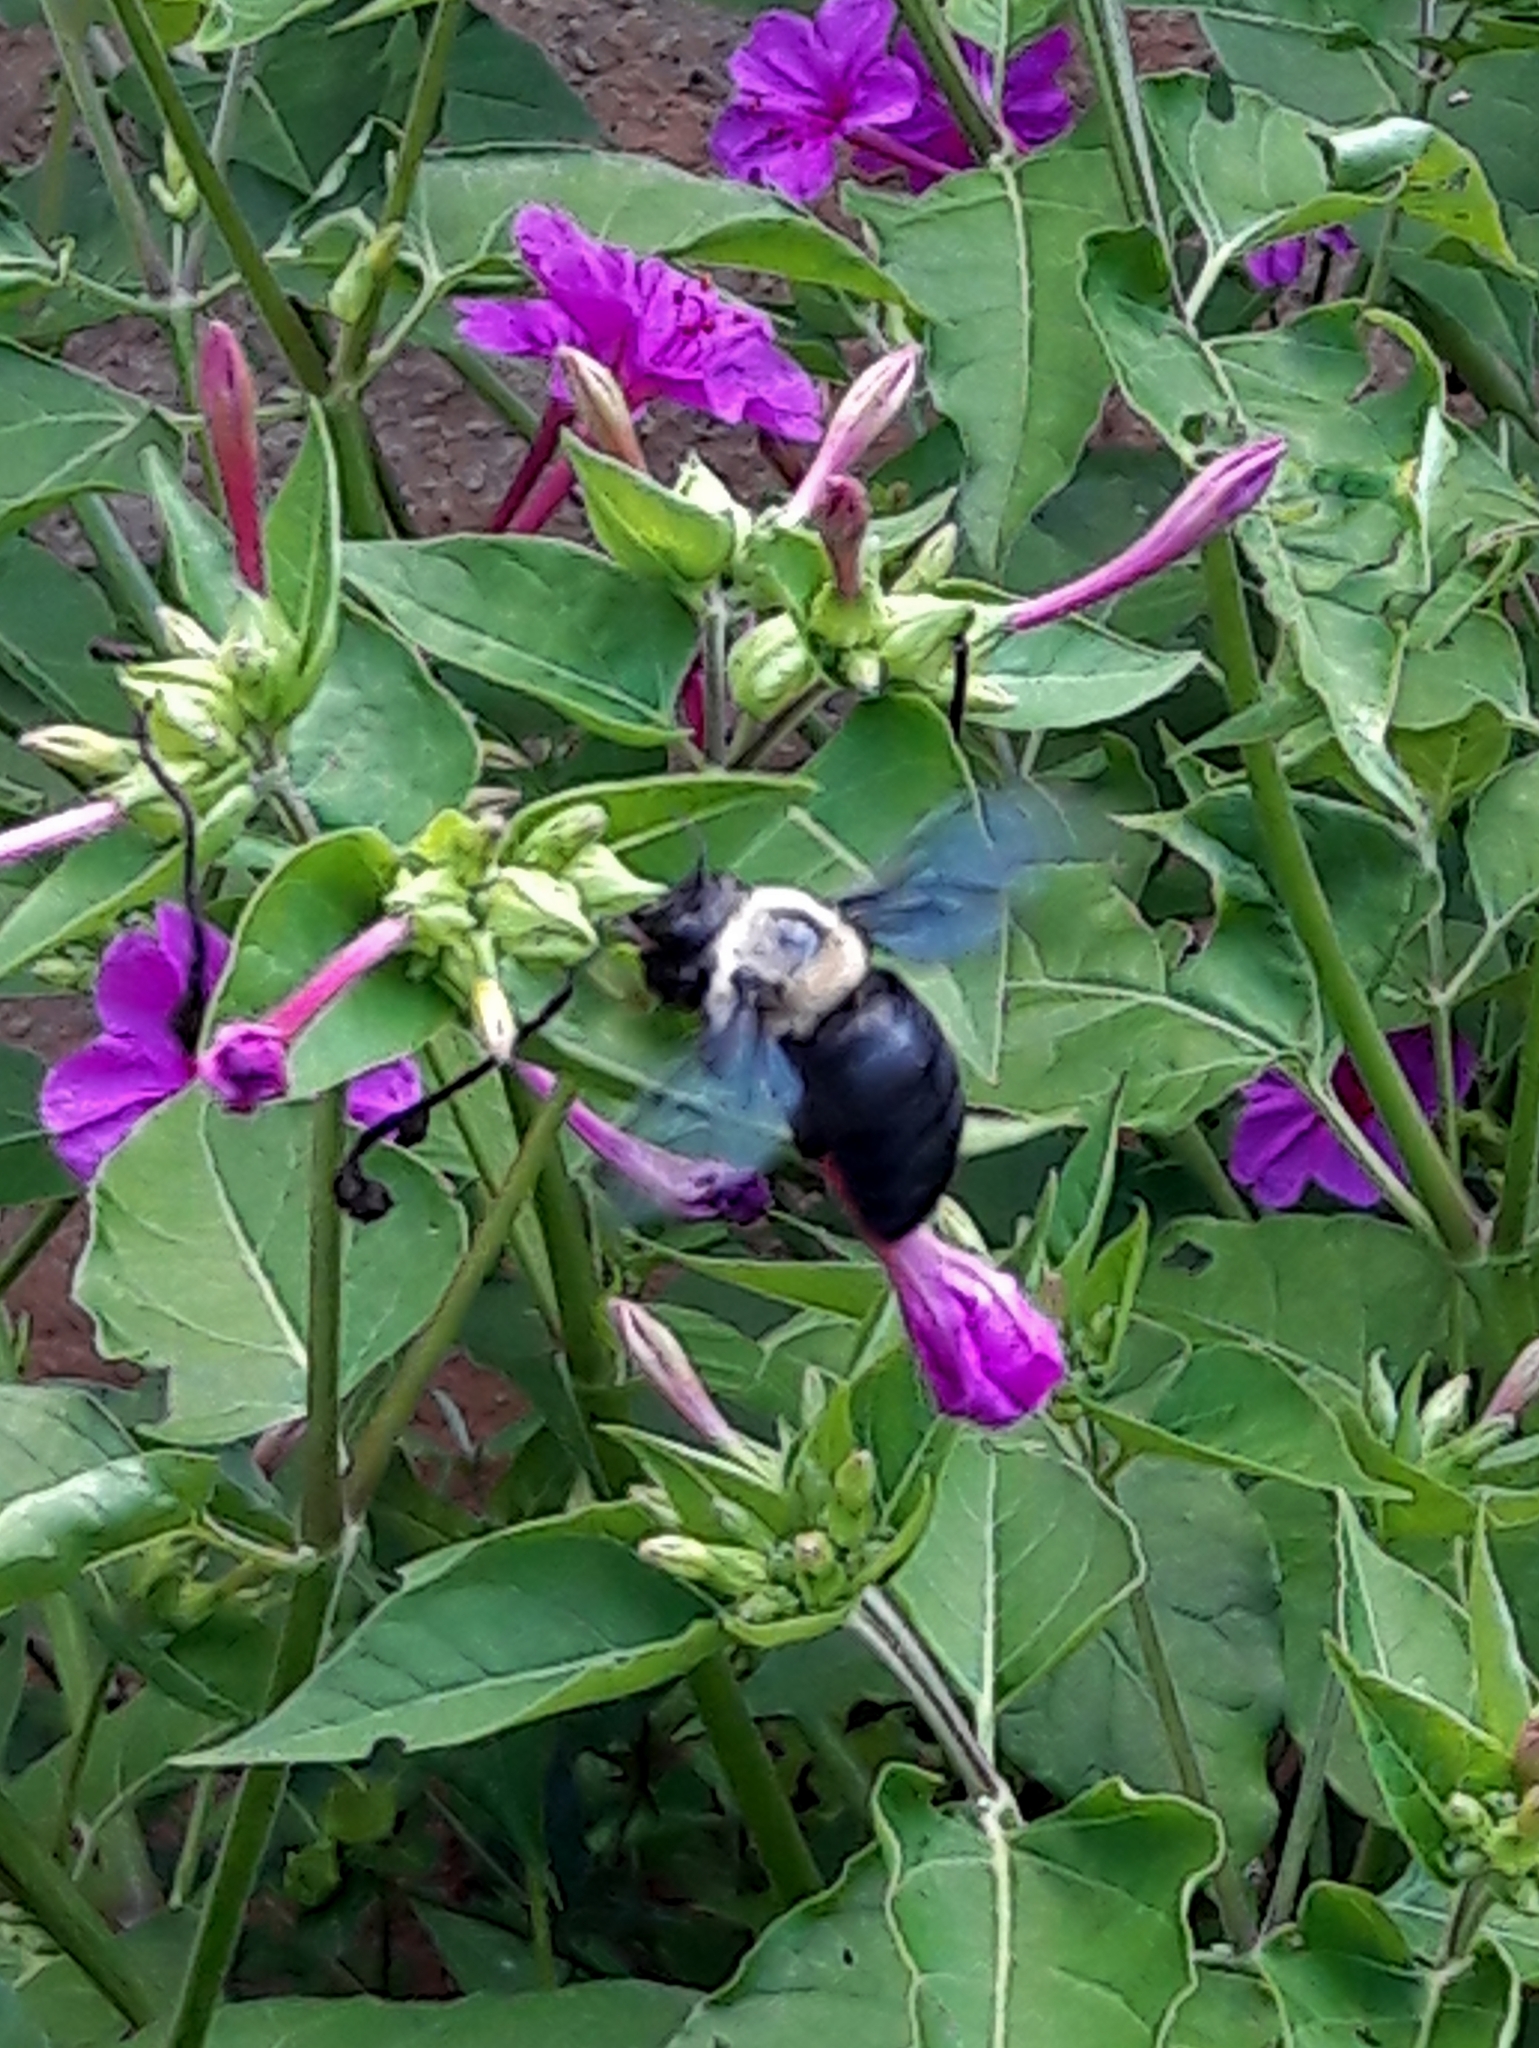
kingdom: Animalia
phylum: Arthropoda
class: Insecta
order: Hymenoptera
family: Apidae
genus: Xylocopa
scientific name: Xylocopa grisescens
